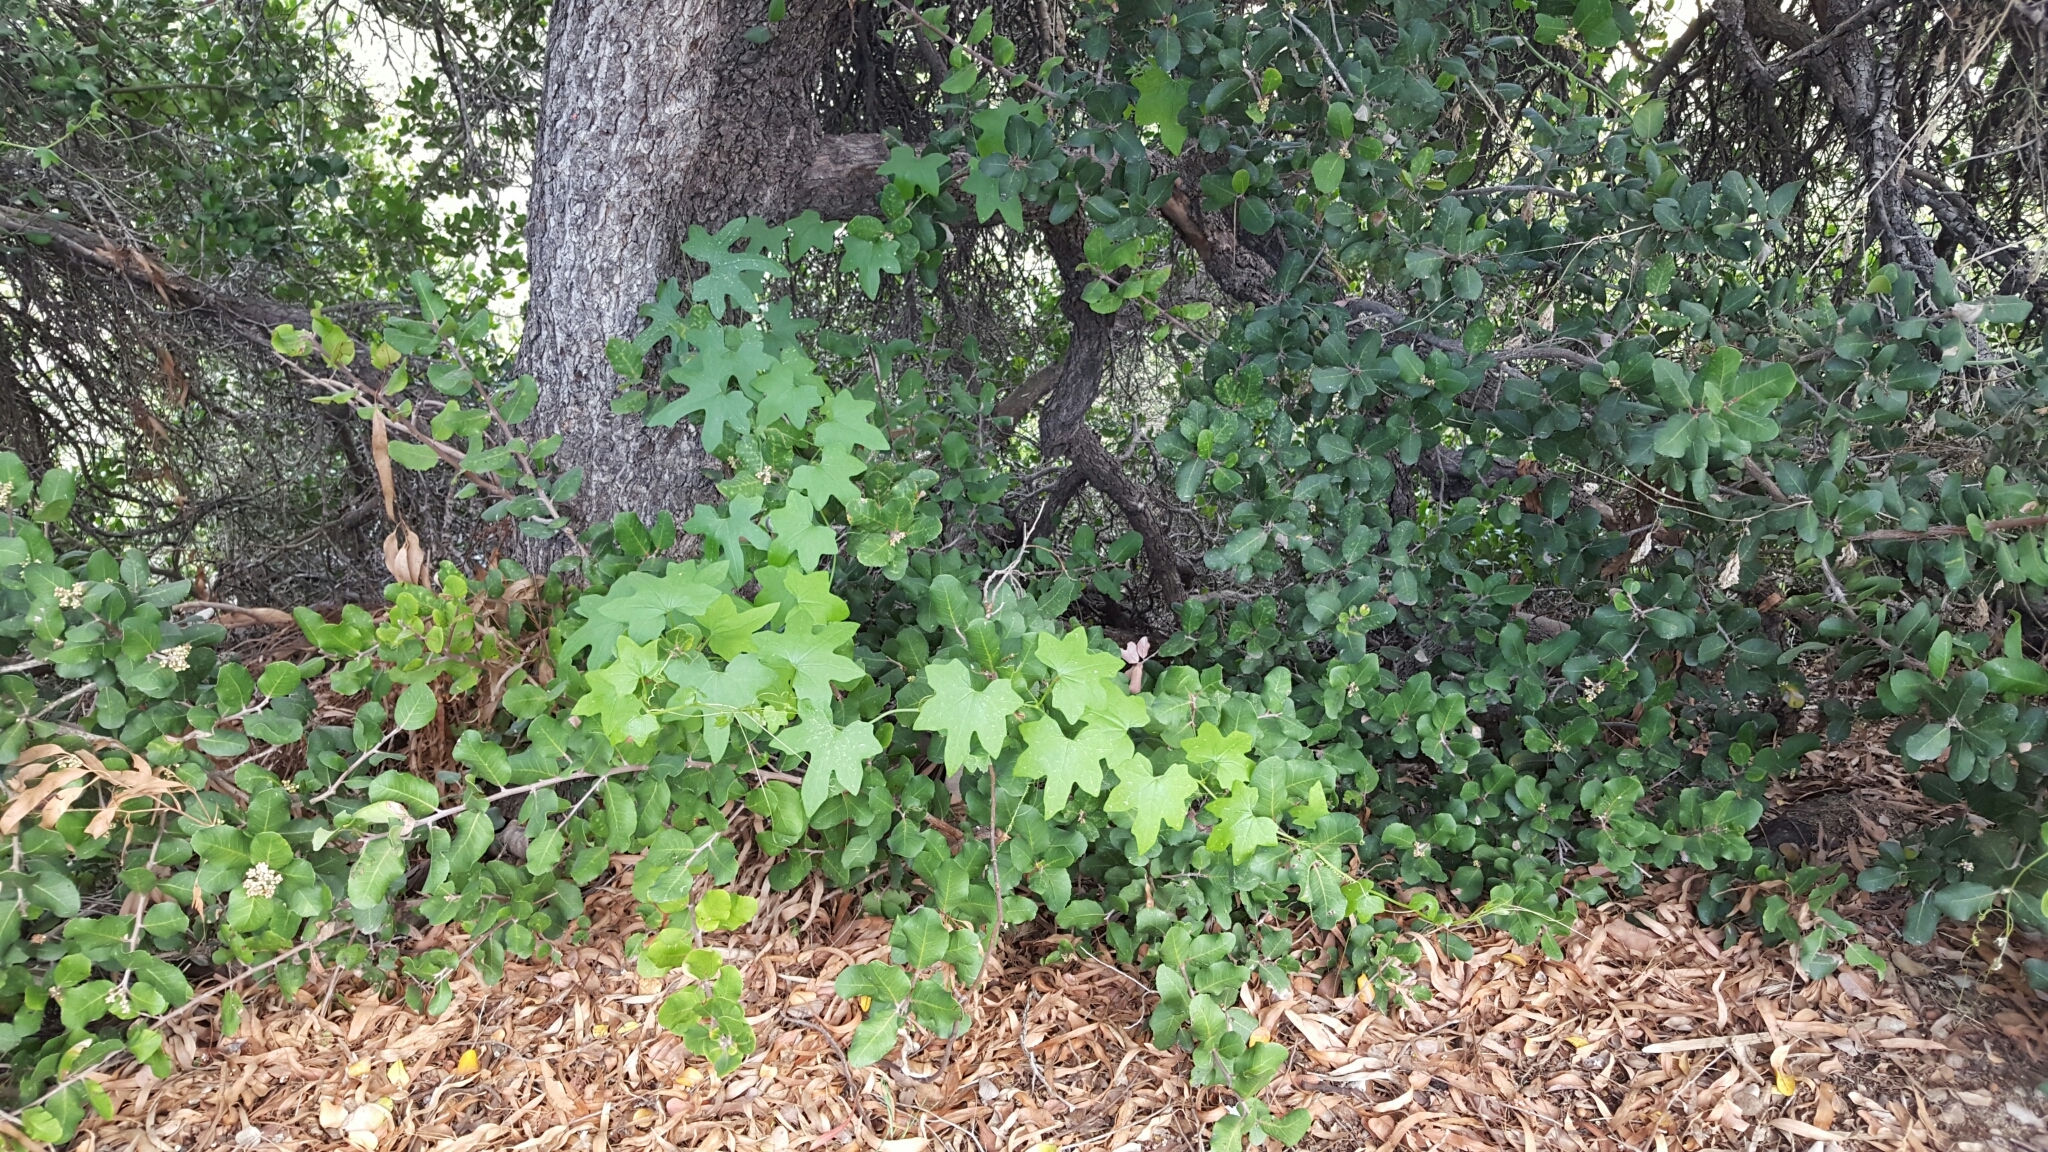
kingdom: Plantae
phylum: Tracheophyta
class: Magnoliopsida
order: Cucurbitales
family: Cucurbitaceae
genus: Marah
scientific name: Marah macrocarpa
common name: Cucamonga manroot
